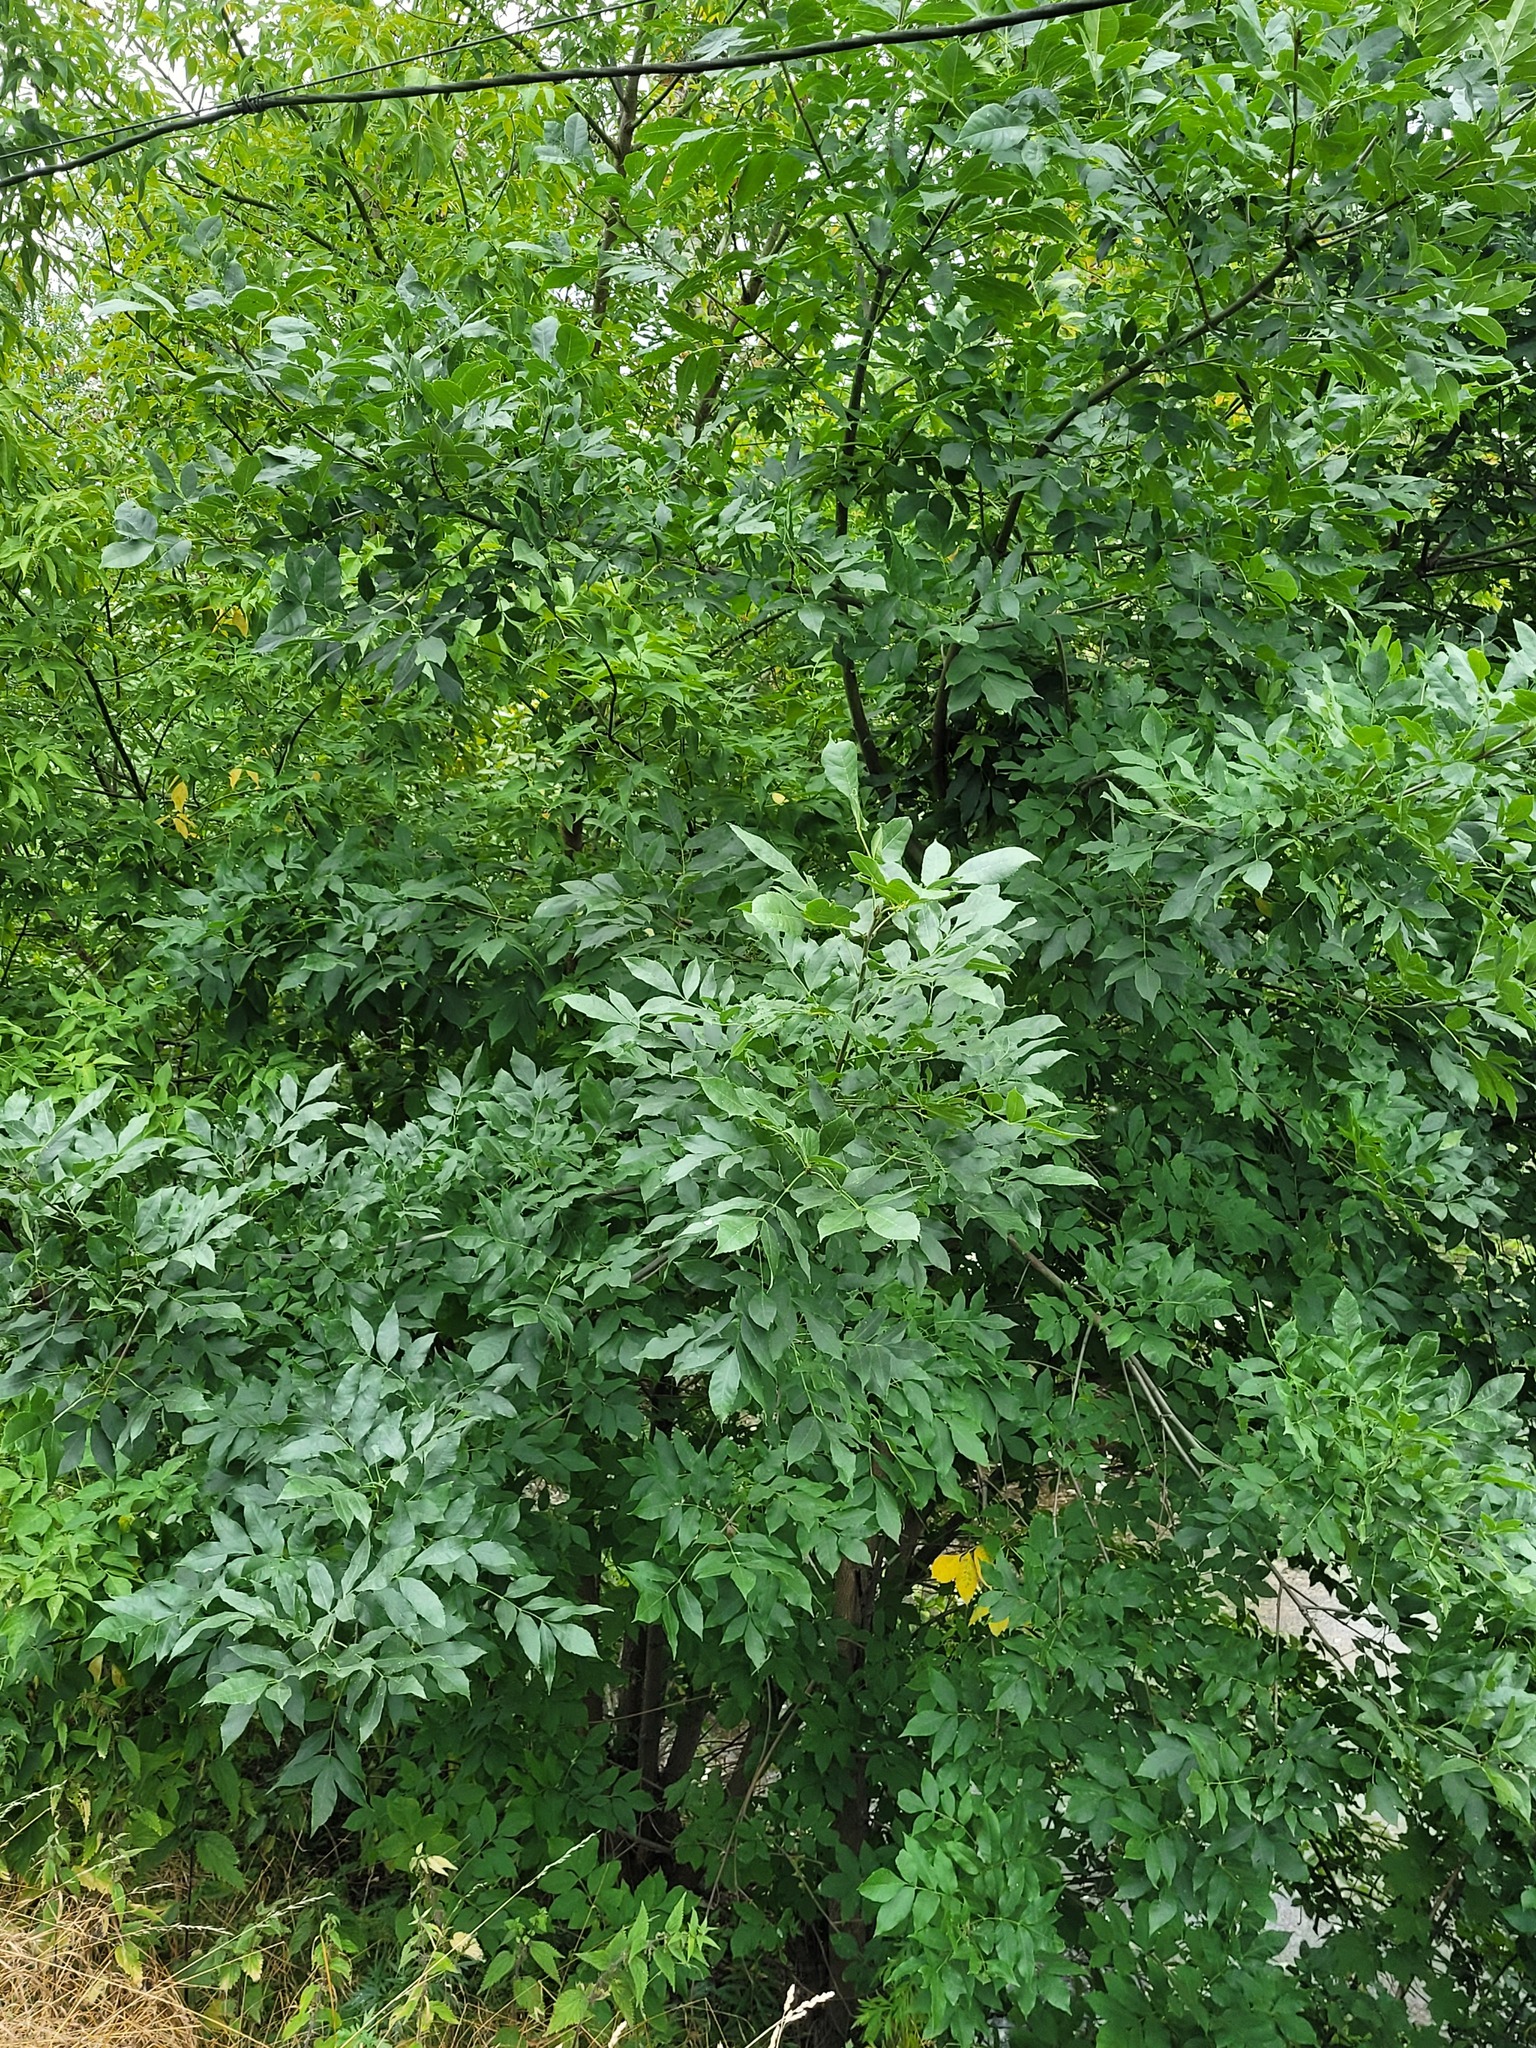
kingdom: Plantae
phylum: Tracheophyta
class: Magnoliopsida
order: Lamiales
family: Oleaceae
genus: Fraxinus
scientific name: Fraxinus pennsylvanica
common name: Green ash
